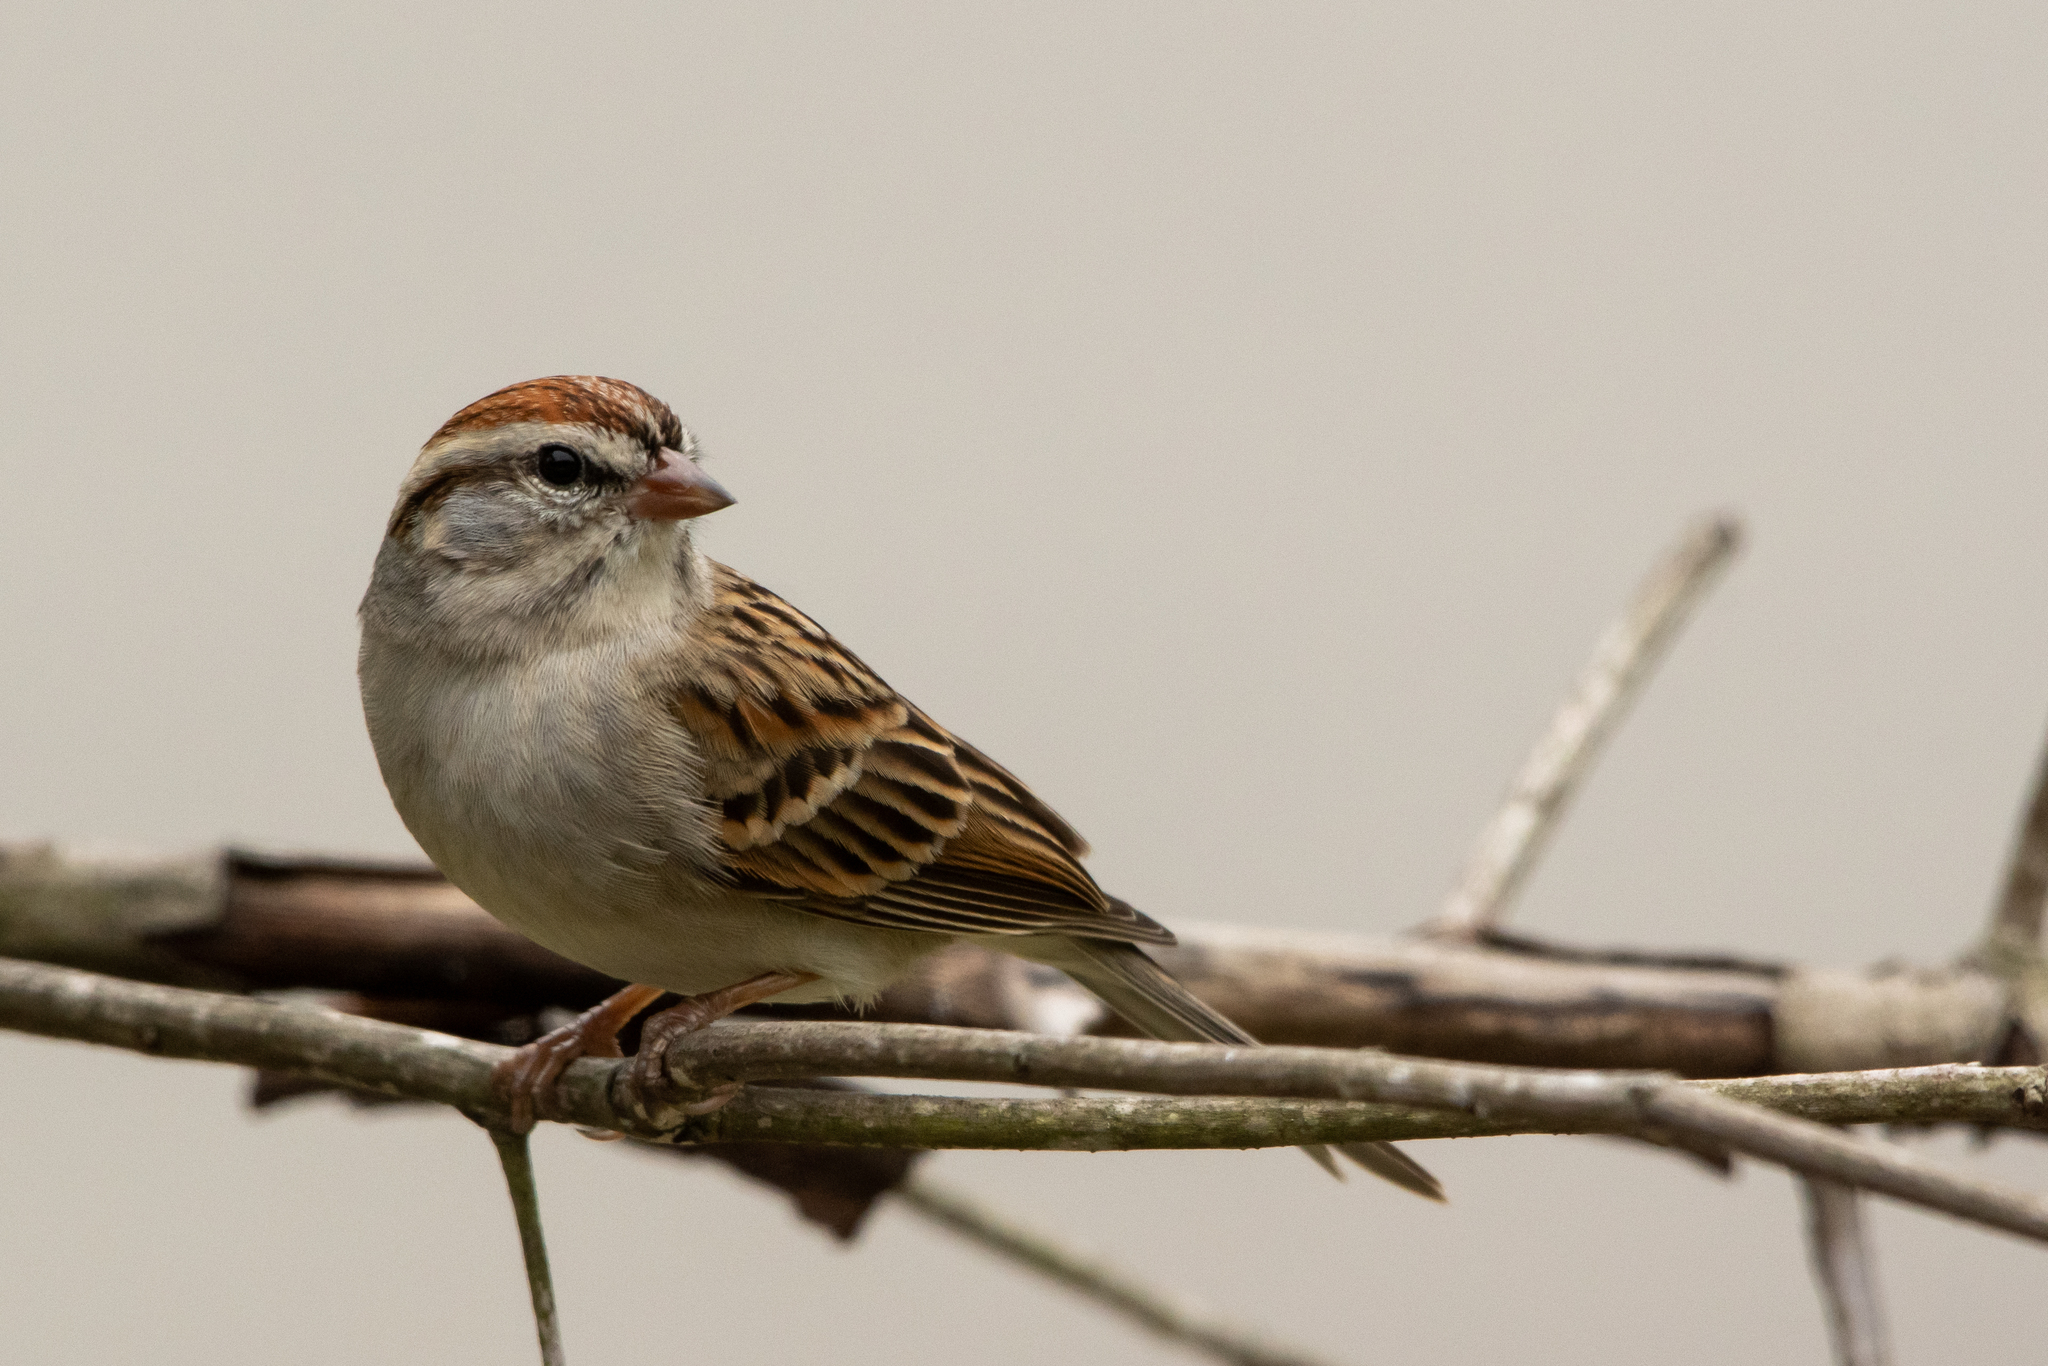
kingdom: Animalia
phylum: Chordata
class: Aves
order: Passeriformes
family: Passerellidae
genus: Spizella
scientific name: Spizella passerina
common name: Chipping sparrow
